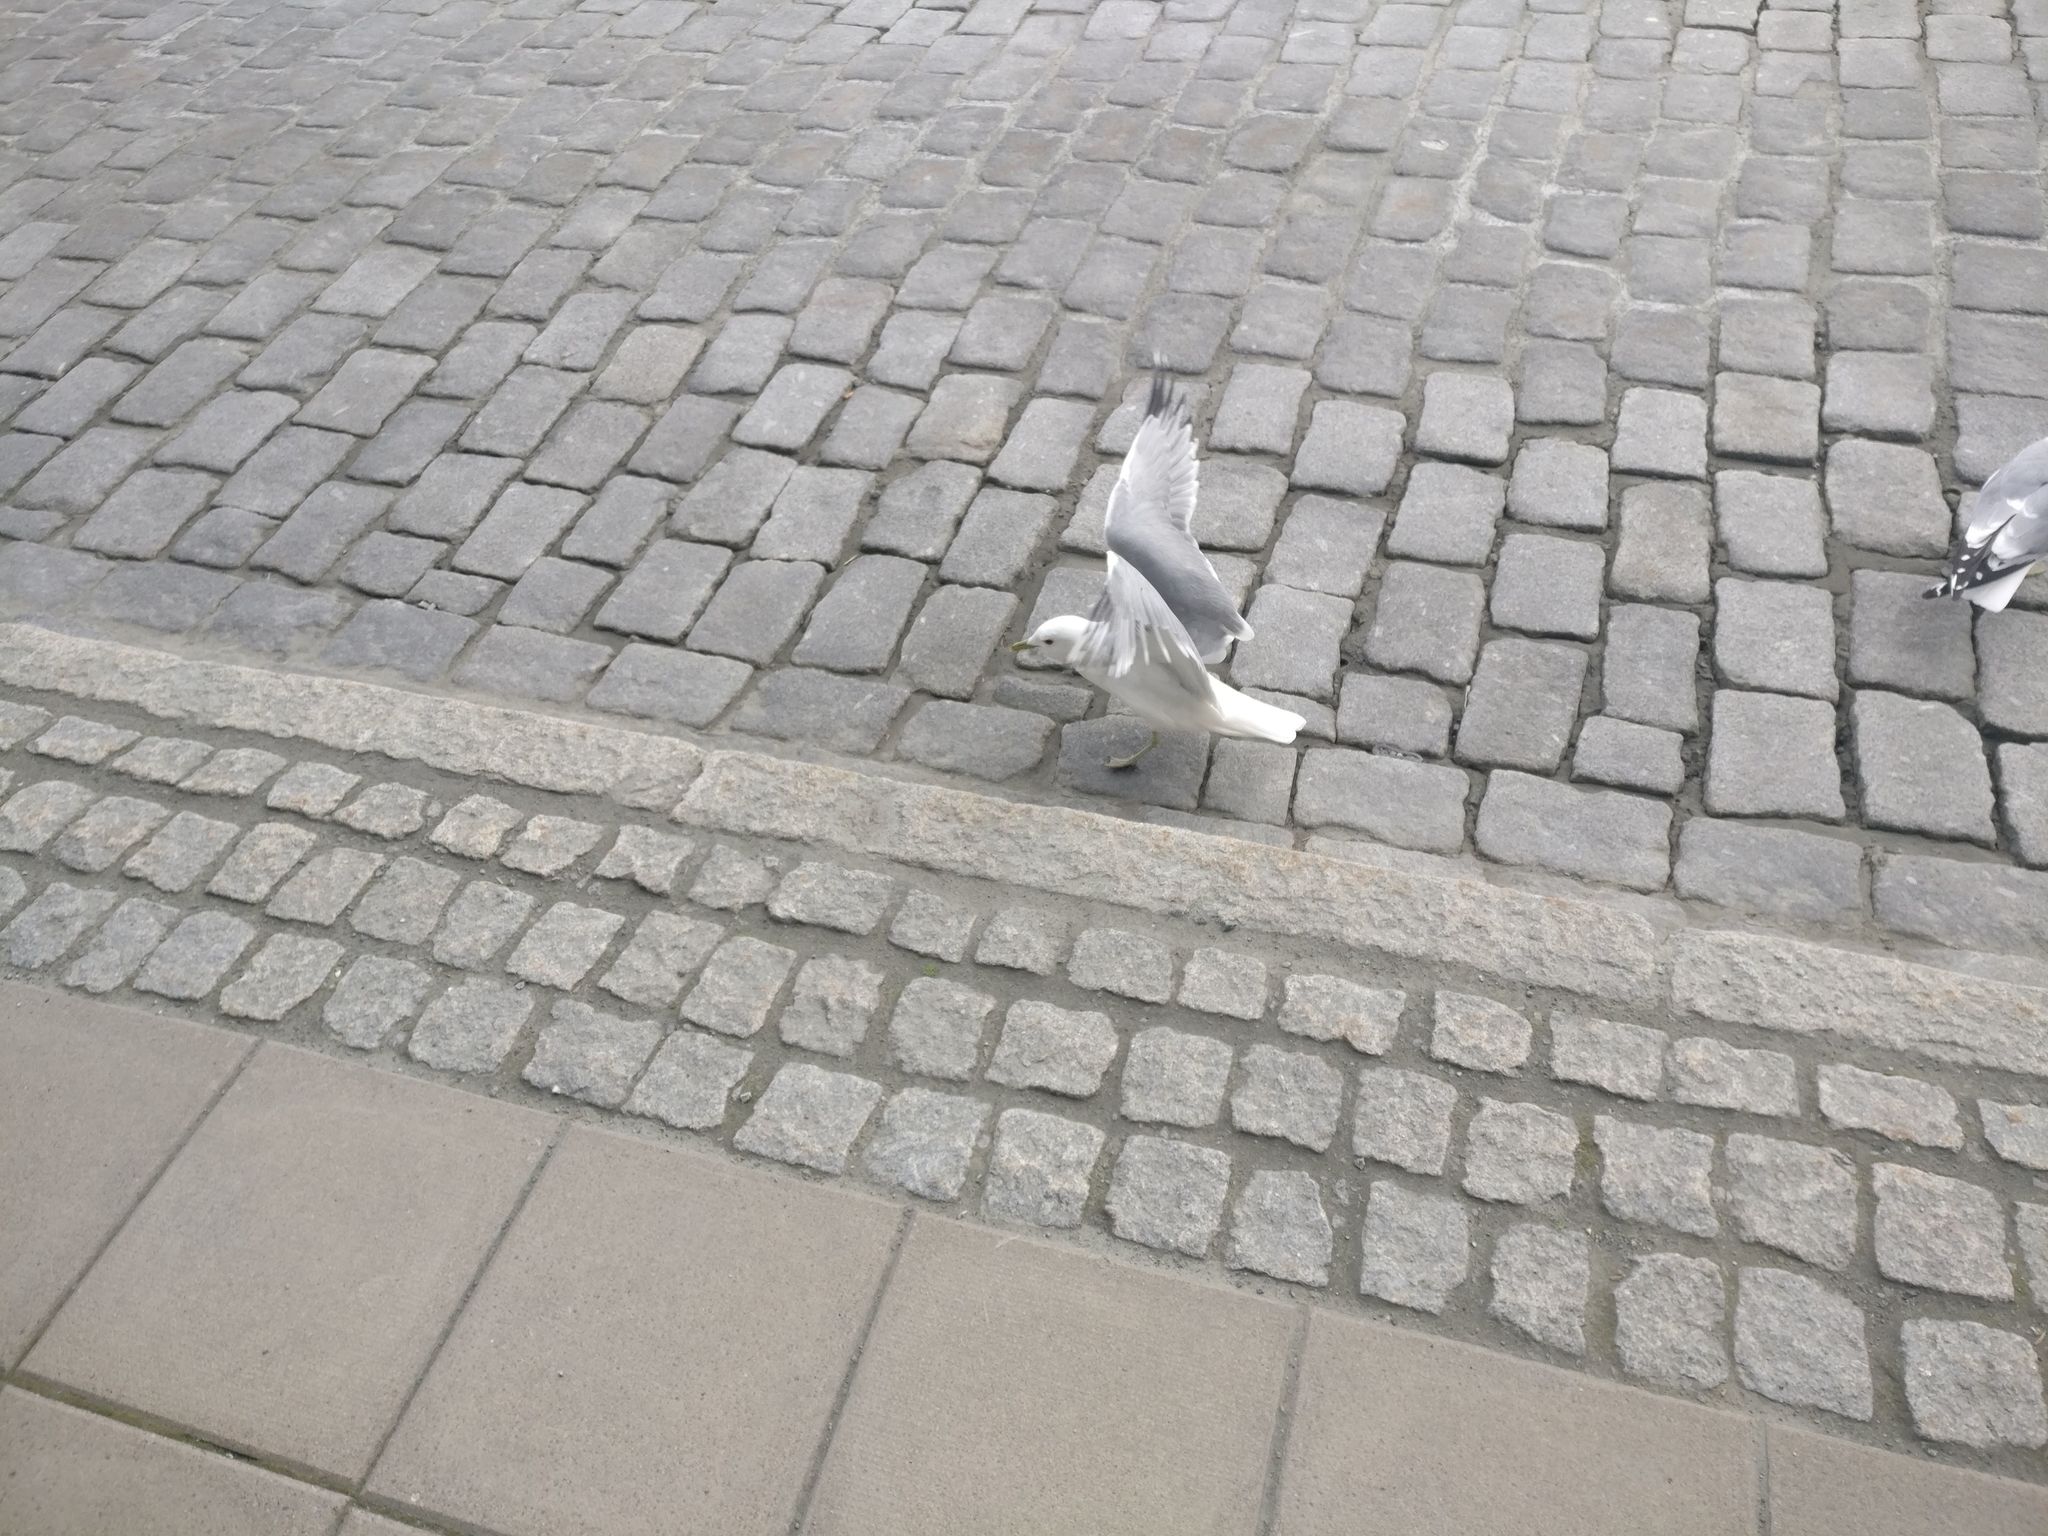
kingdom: Animalia
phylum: Chordata
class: Aves
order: Charadriiformes
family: Laridae
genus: Larus
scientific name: Larus canus
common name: Mew gull
